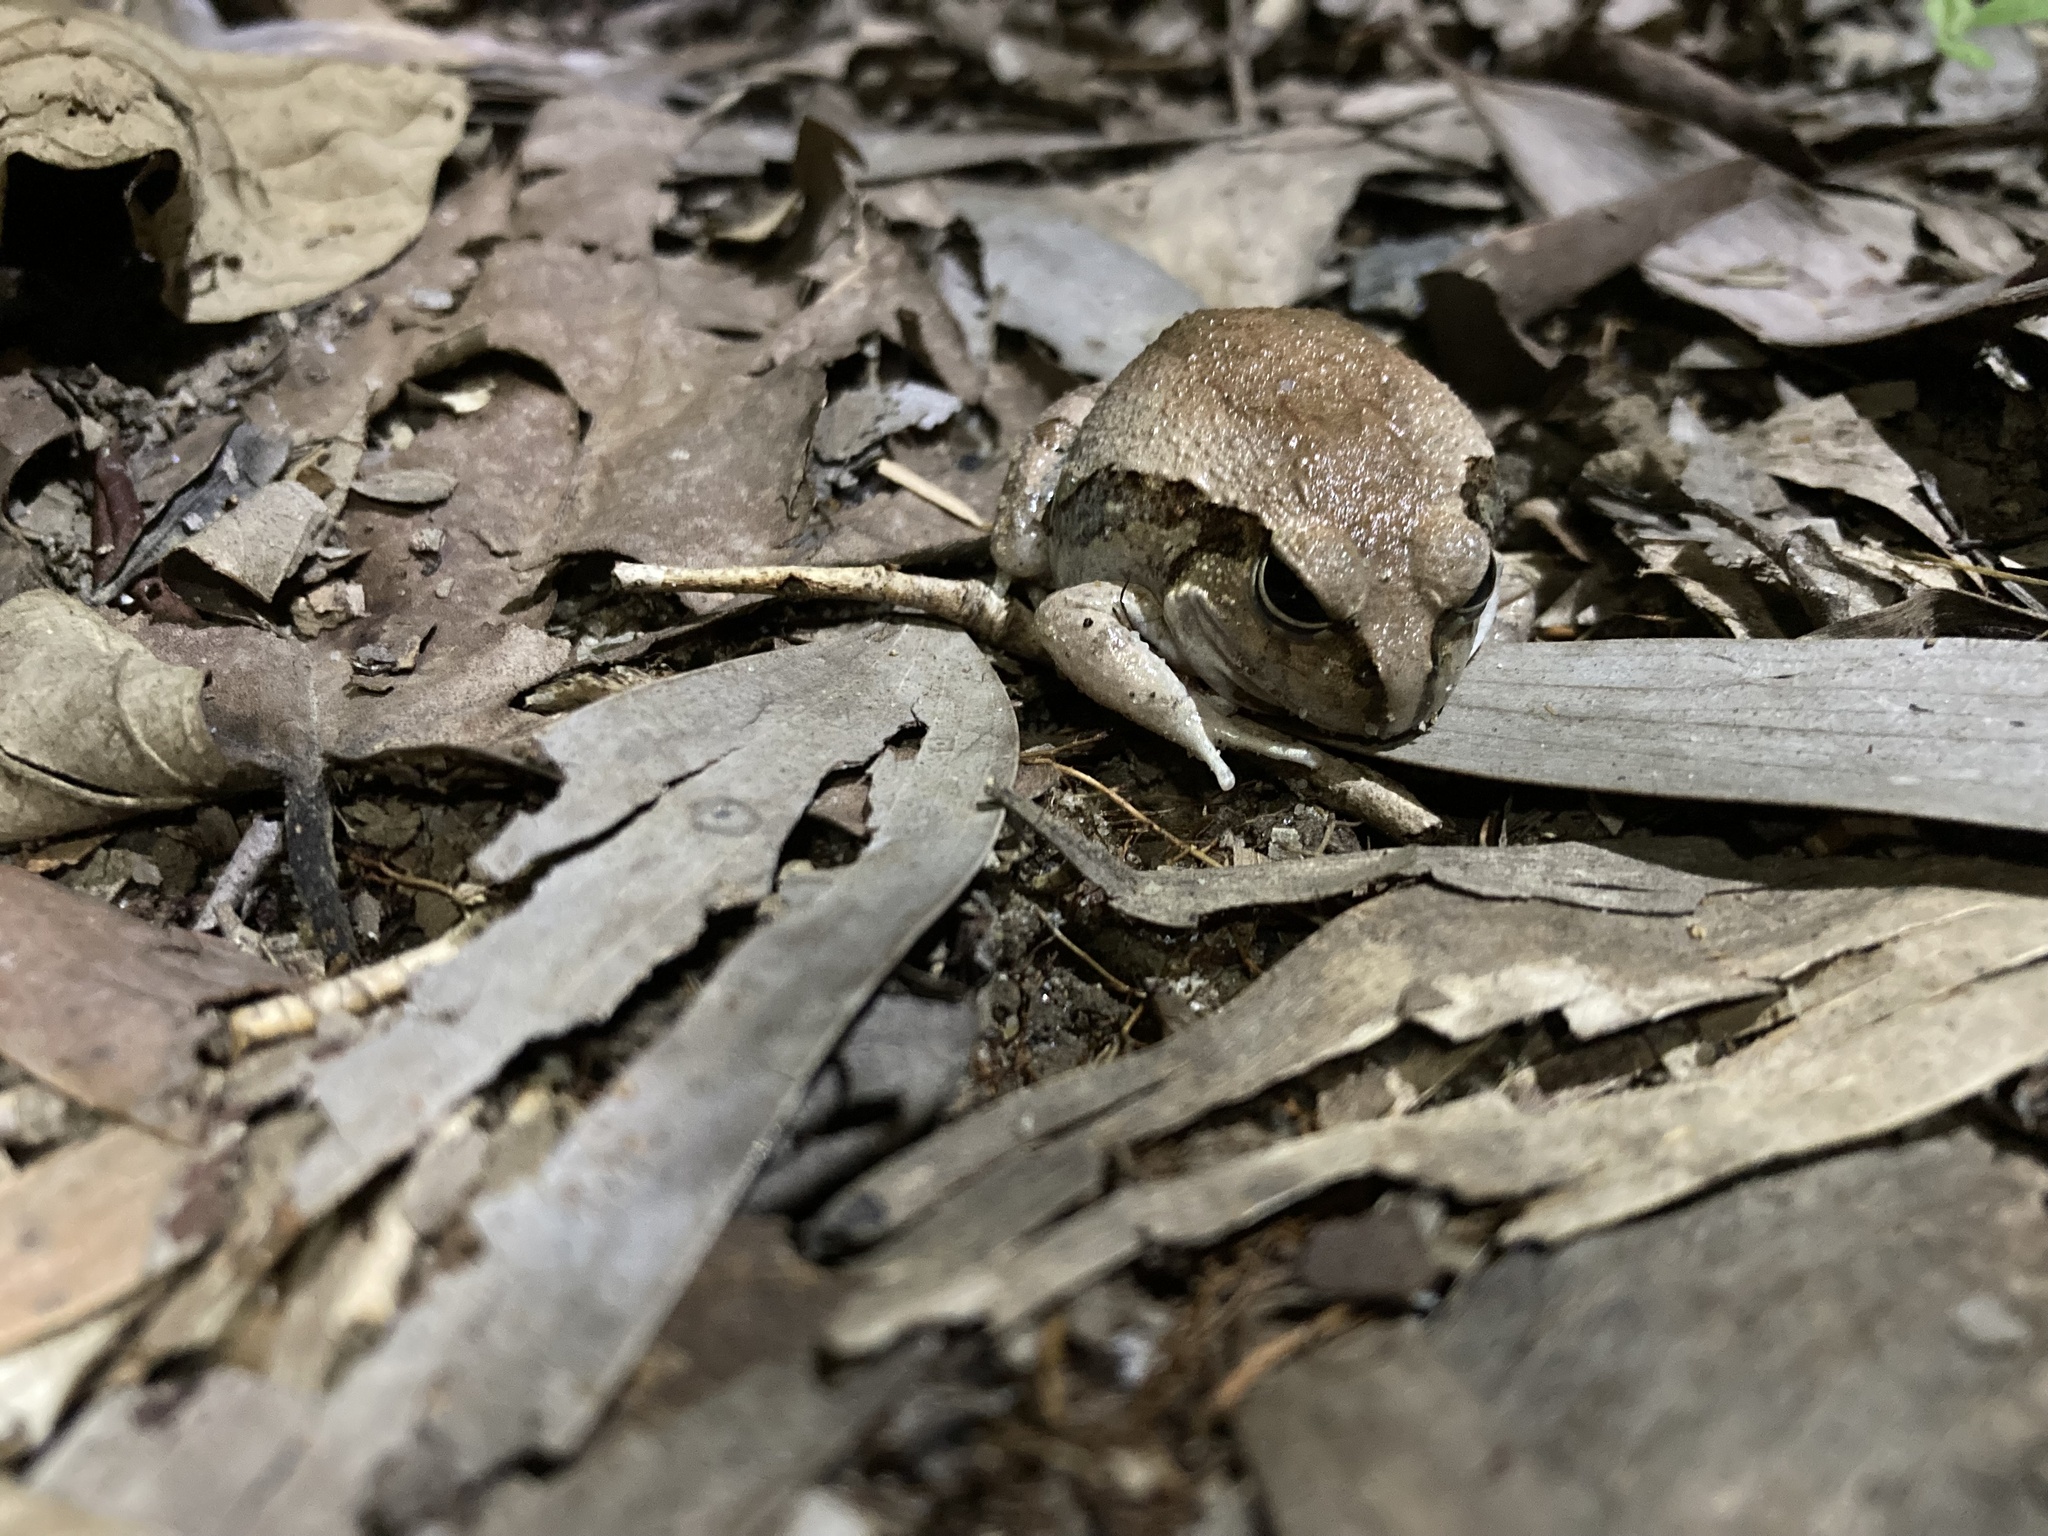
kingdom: Animalia
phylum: Chordata
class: Amphibia
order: Anura
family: Limnodynastidae
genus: Platyplectrum
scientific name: Platyplectrum ornatum
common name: Ornate burrowing frog
